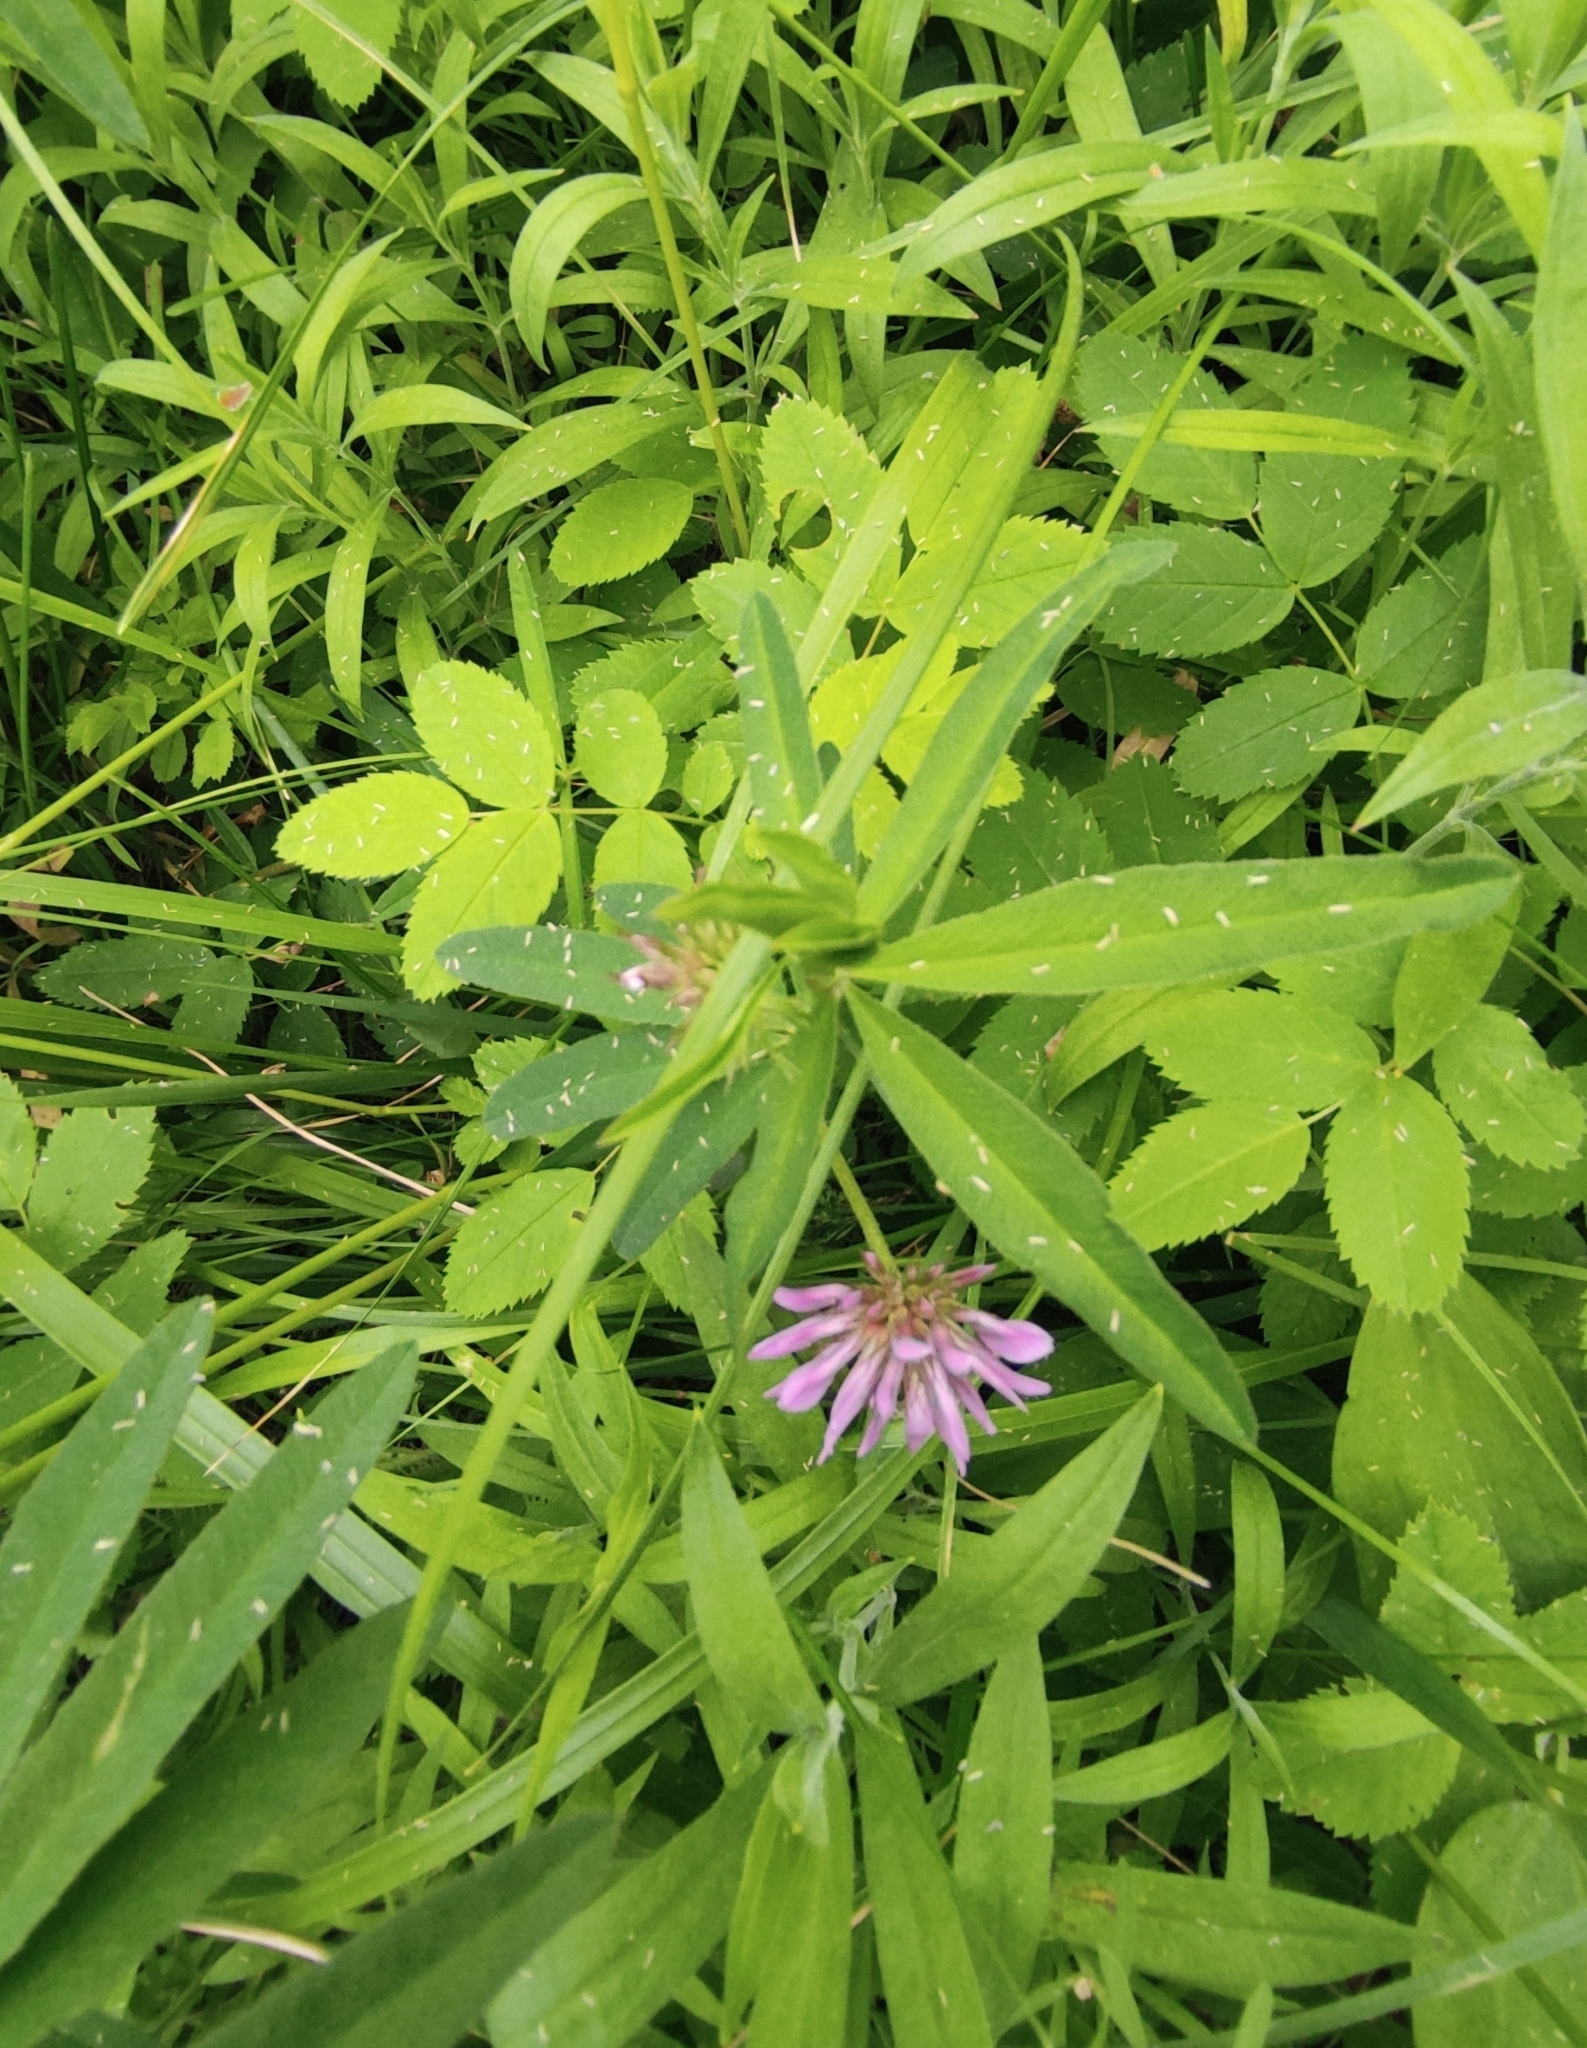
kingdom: Plantae
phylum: Tracheophyta
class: Magnoliopsida
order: Fabales
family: Fabaceae
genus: Trifolium
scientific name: Trifolium lupinaster
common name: Lupine clover
